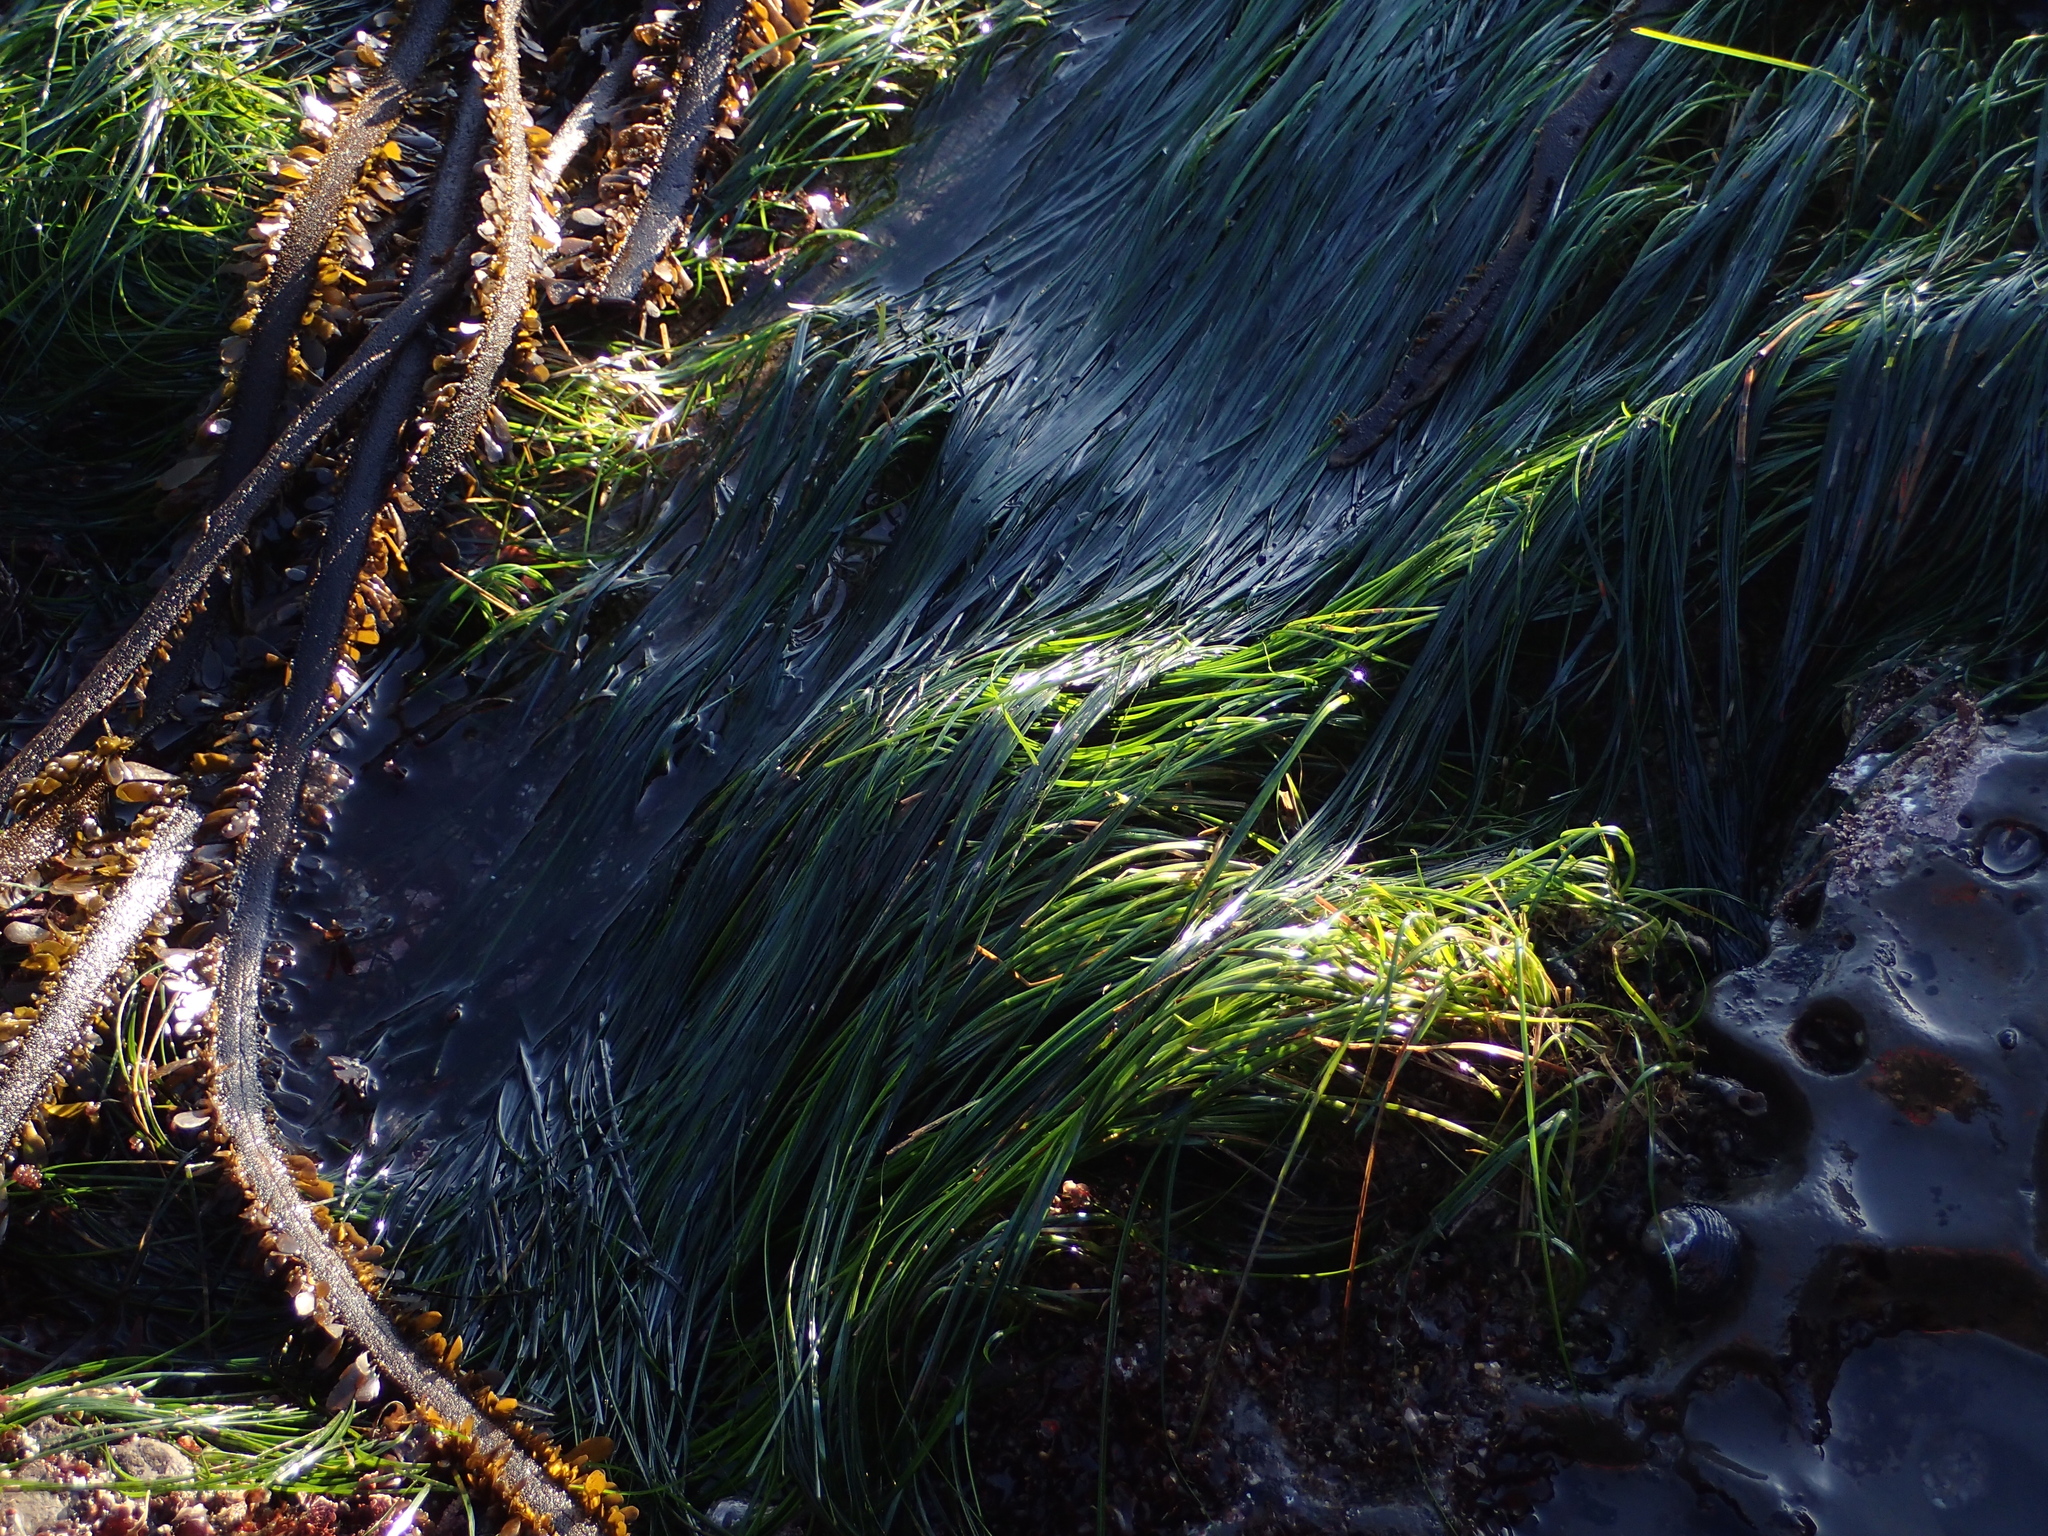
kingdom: Plantae
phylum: Tracheophyta
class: Liliopsida
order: Alismatales
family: Zosteraceae
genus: Phyllospadix
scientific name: Phyllospadix torreyi
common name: Surfgrass
